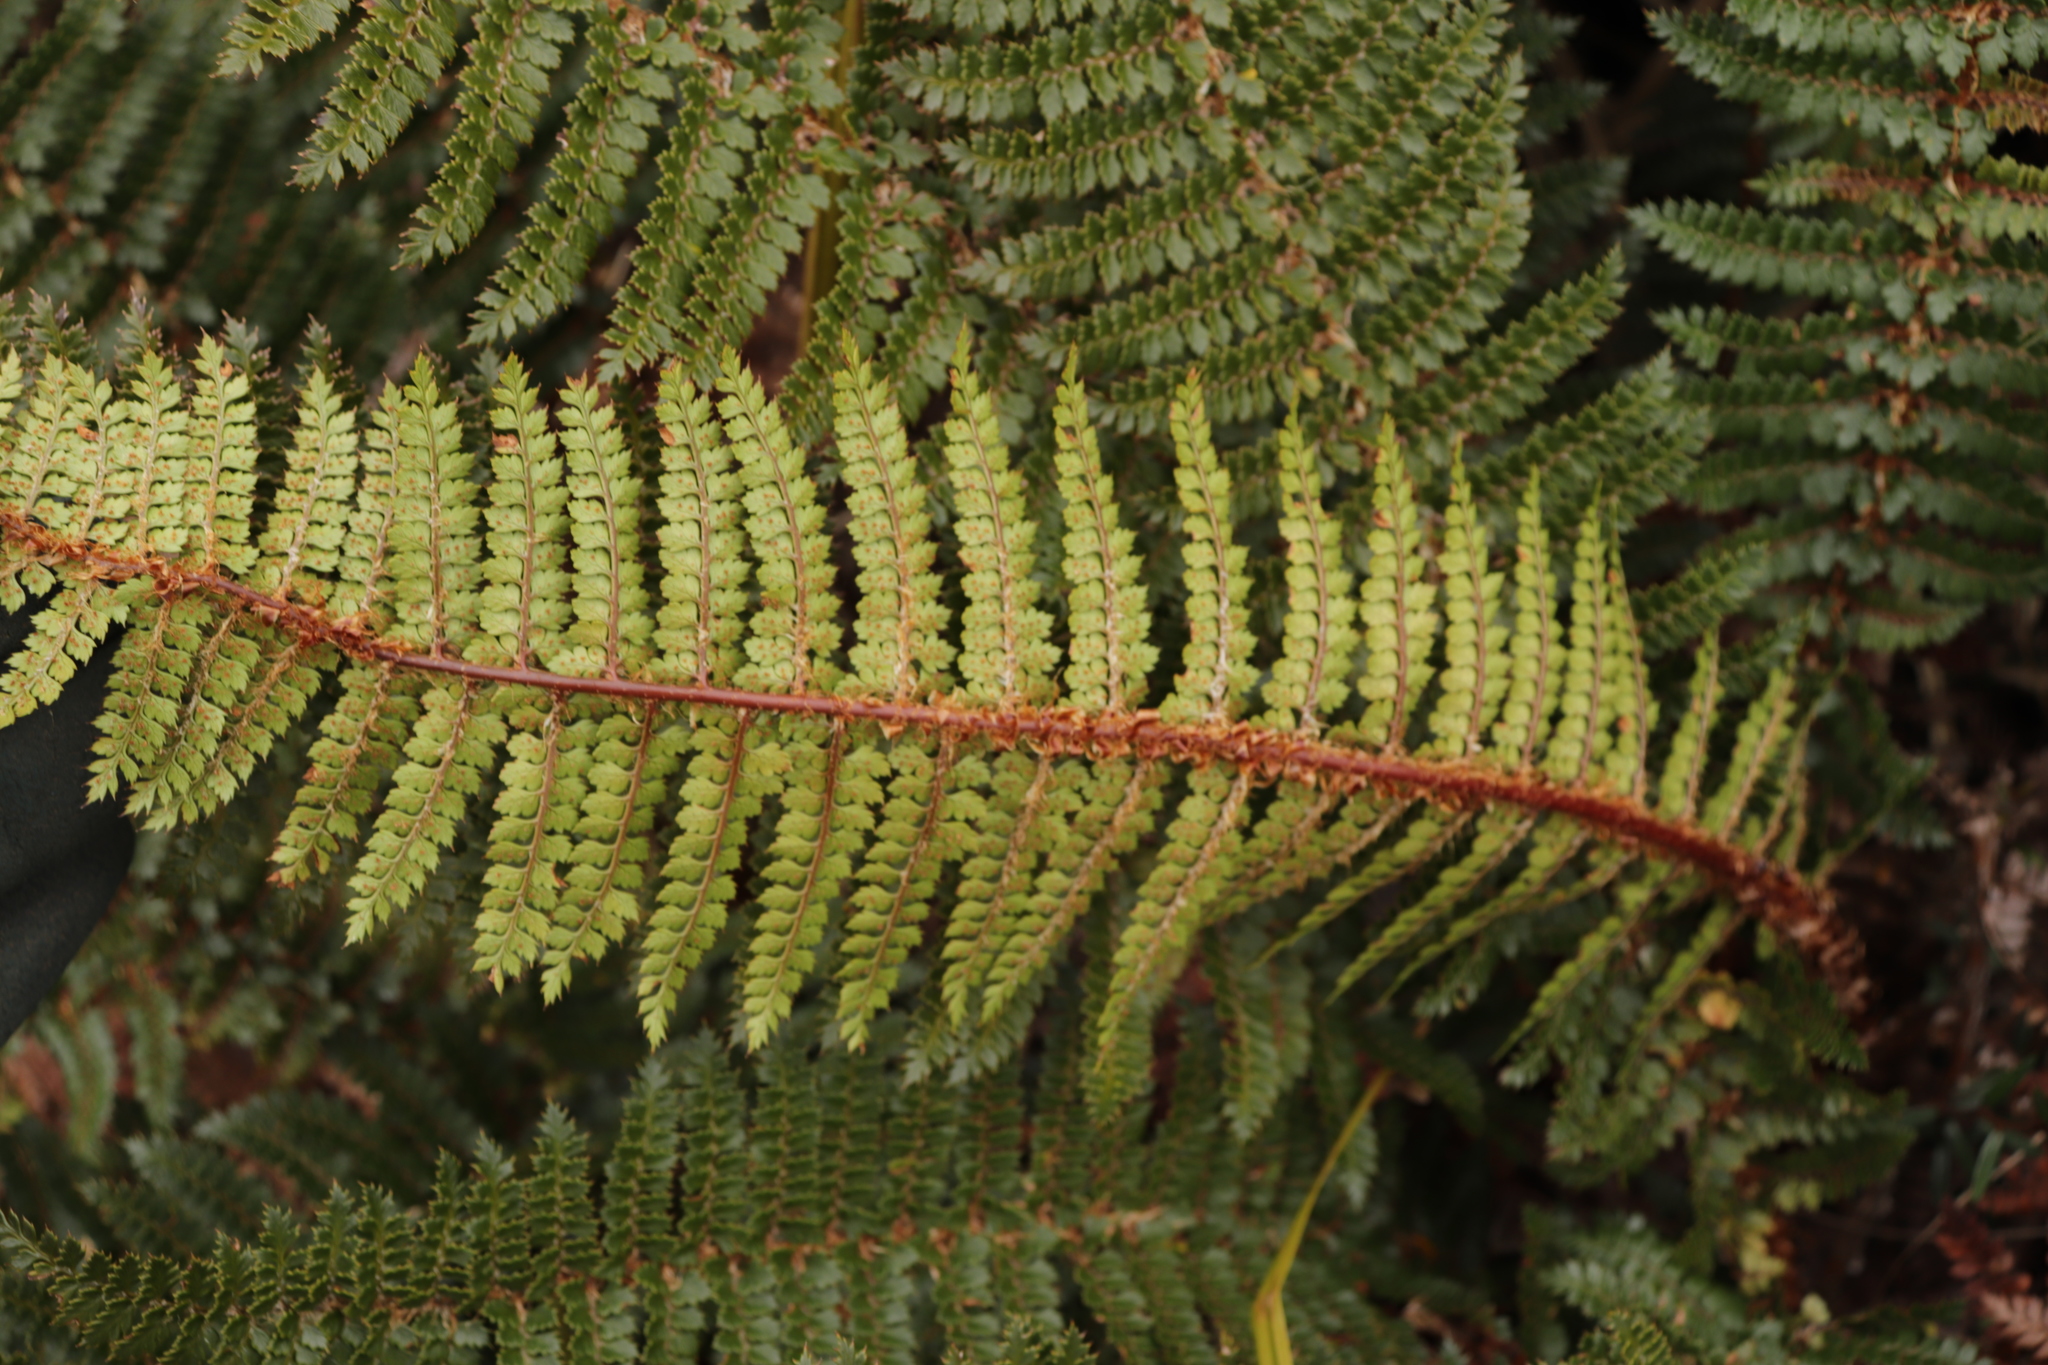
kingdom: Plantae
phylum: Tracheophyta
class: Polypodiopsida
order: Polypodiales
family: Dryopteridaceae
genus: Polystichum
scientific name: Polystichum vestitum
